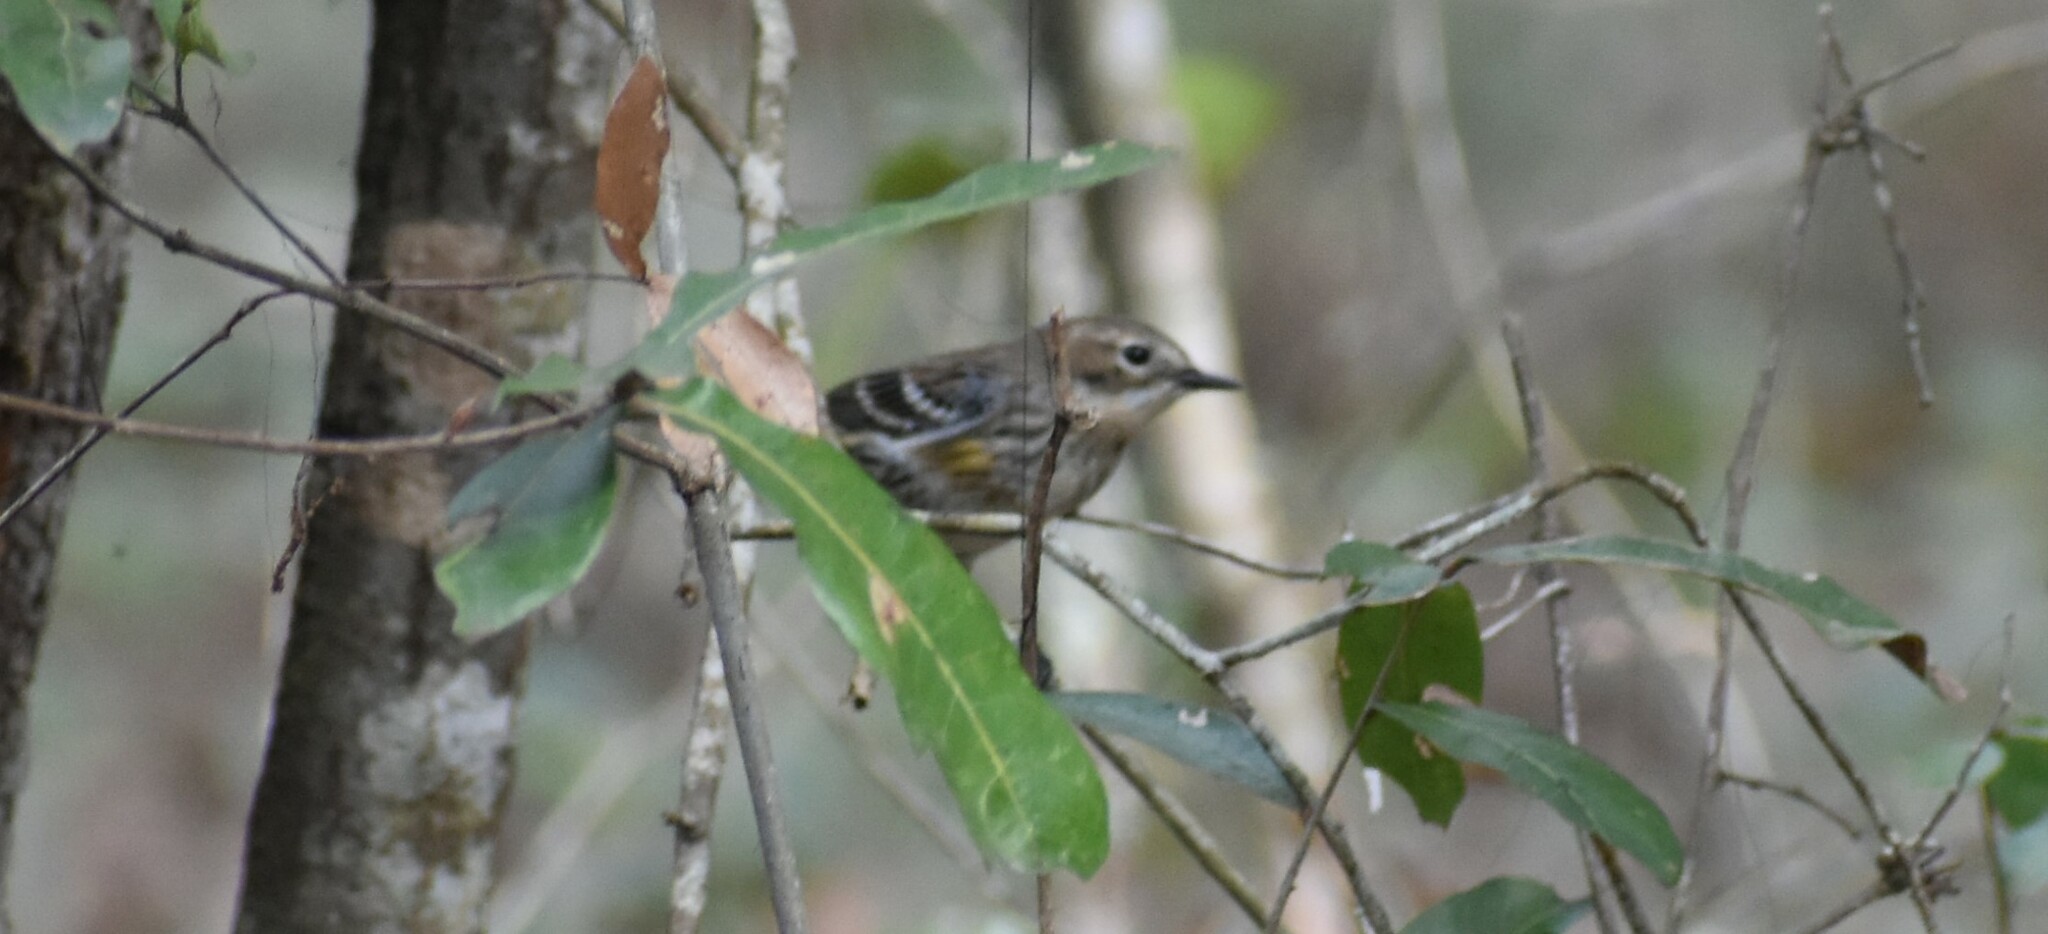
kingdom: Animalia
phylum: Chordata
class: Aves
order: Passeriformes
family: Parulidae
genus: Setophaga
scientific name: Setophaga coronata
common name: Myrtle warbler
